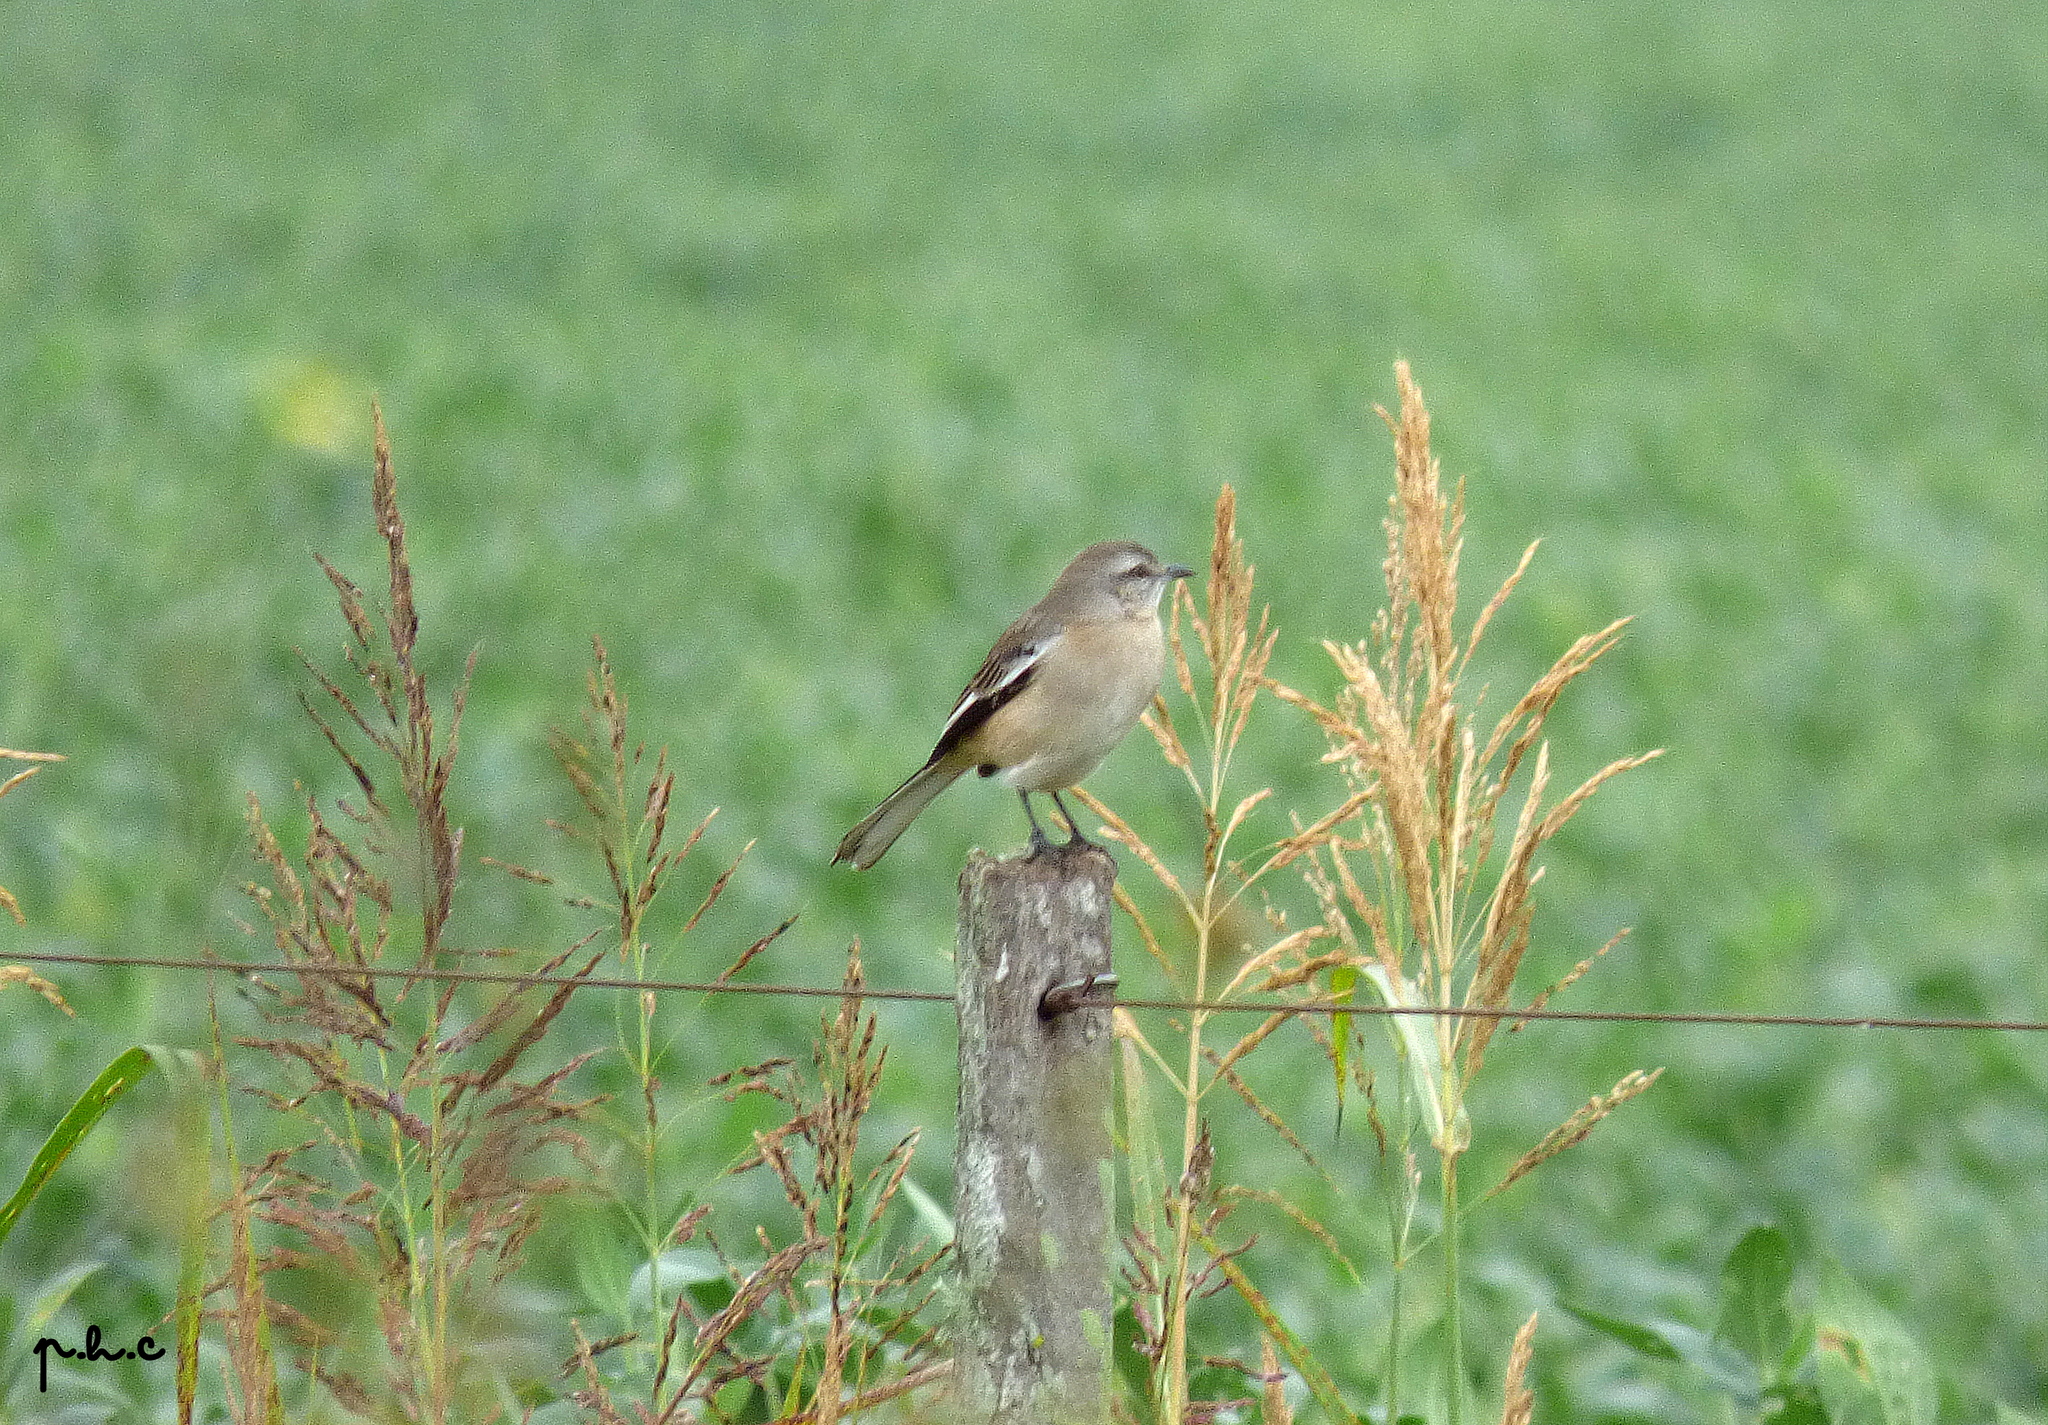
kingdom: Animalia
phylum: Chordata
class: Aves
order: Passeriformes
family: Mimidae
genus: Mimus
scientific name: Mimus triurus
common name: White-banded mockingbird
